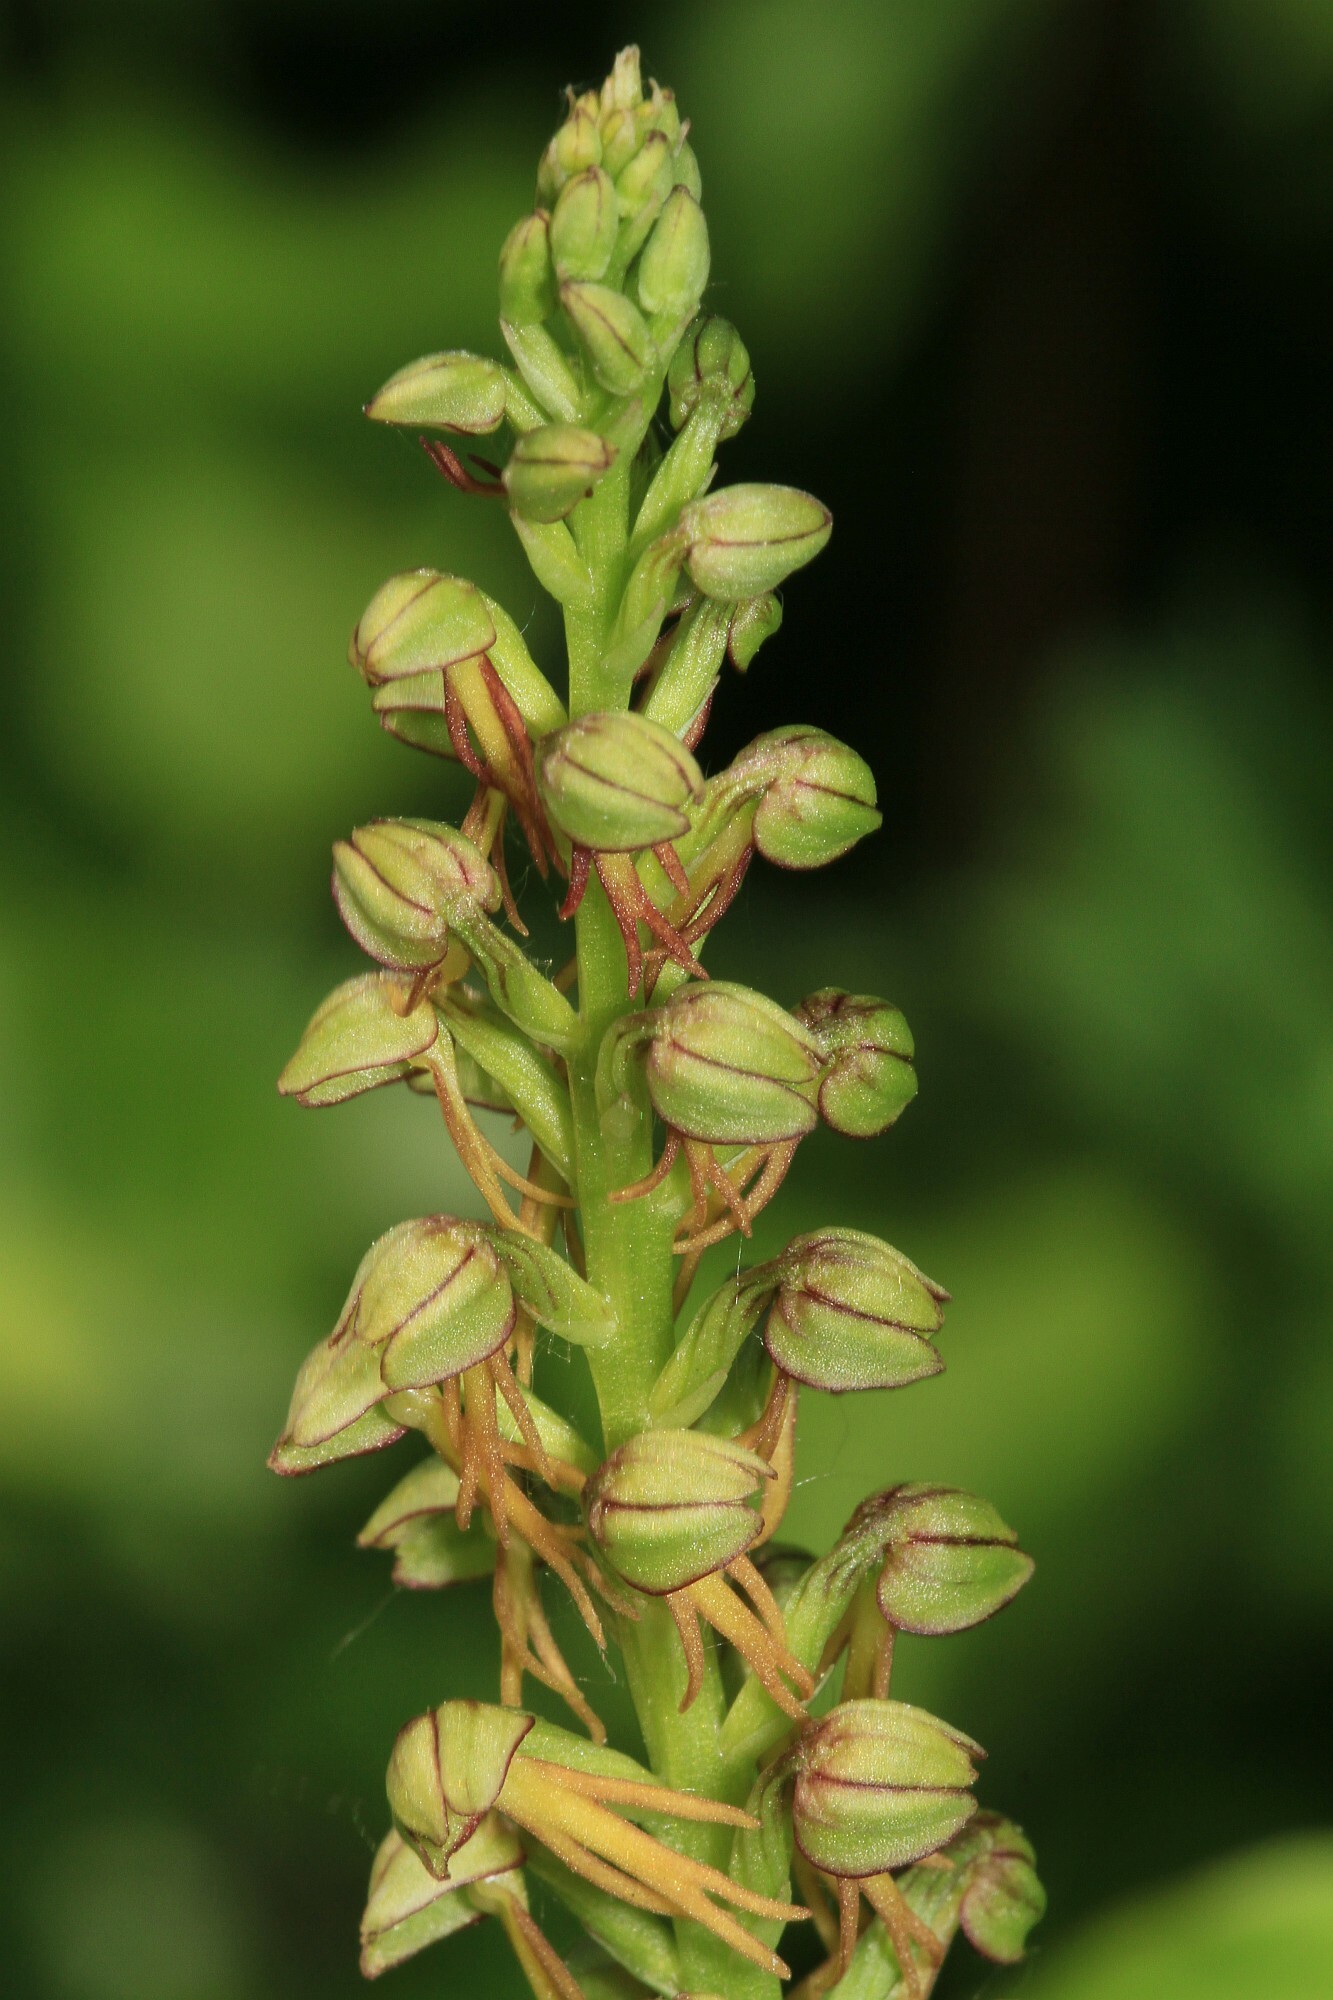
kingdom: Plantae
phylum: Tracheophyta
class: Liliopsida
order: Asparagales
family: Orchidaceae
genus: Orchis
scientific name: Orchis anthropophora
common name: Man orchid
